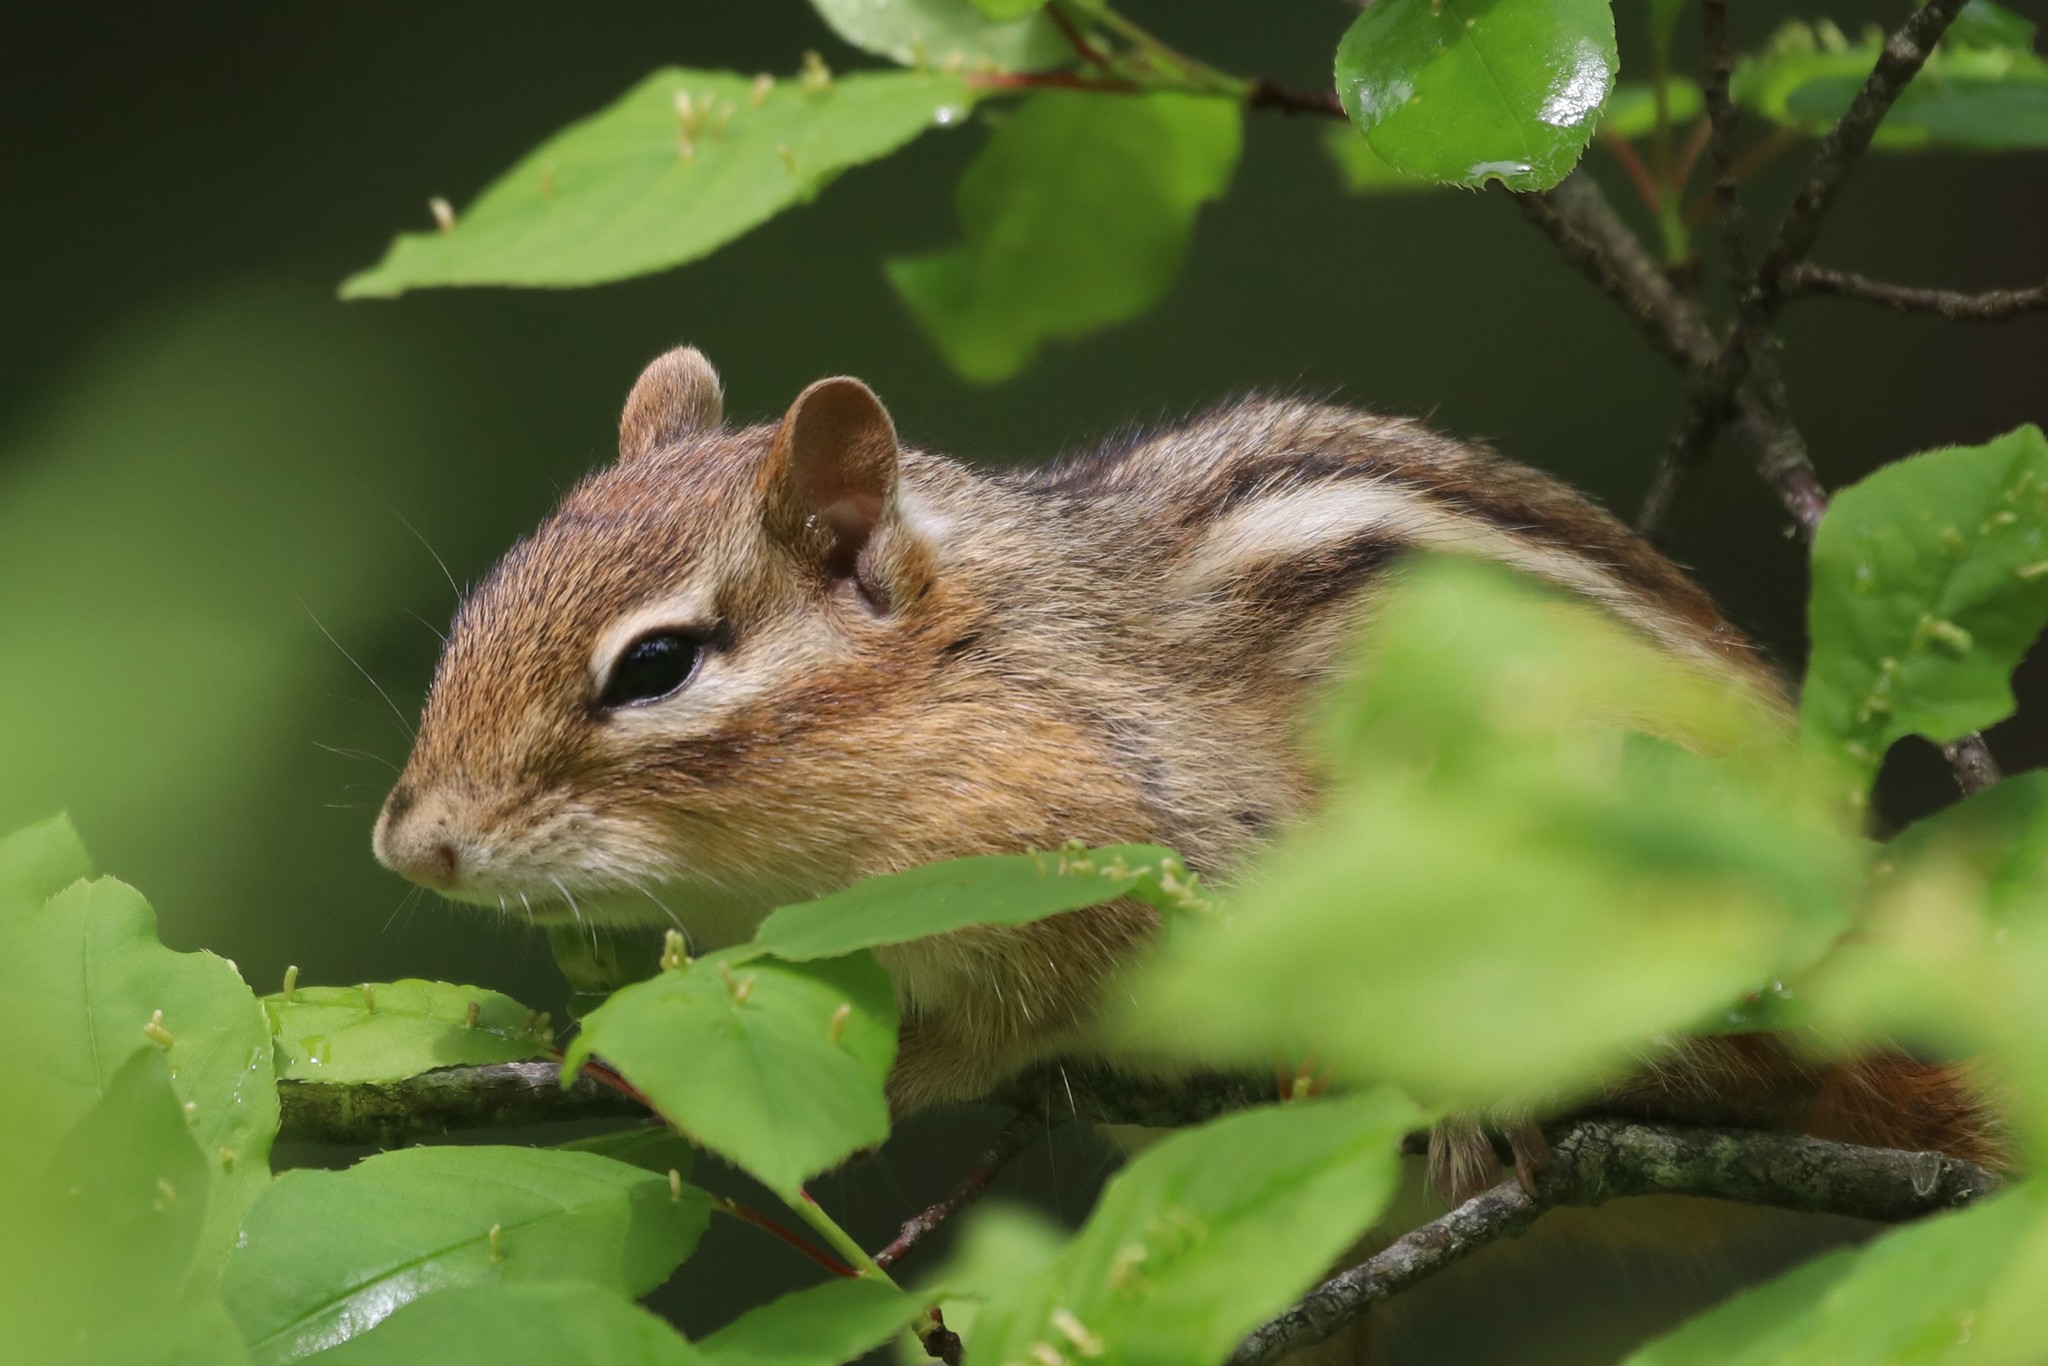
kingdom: Animalia
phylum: Chordata
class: Mammalia
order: Rodentia
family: Sciuridae
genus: Tamias
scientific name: Tamias striatus
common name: Eastern chipmunk
